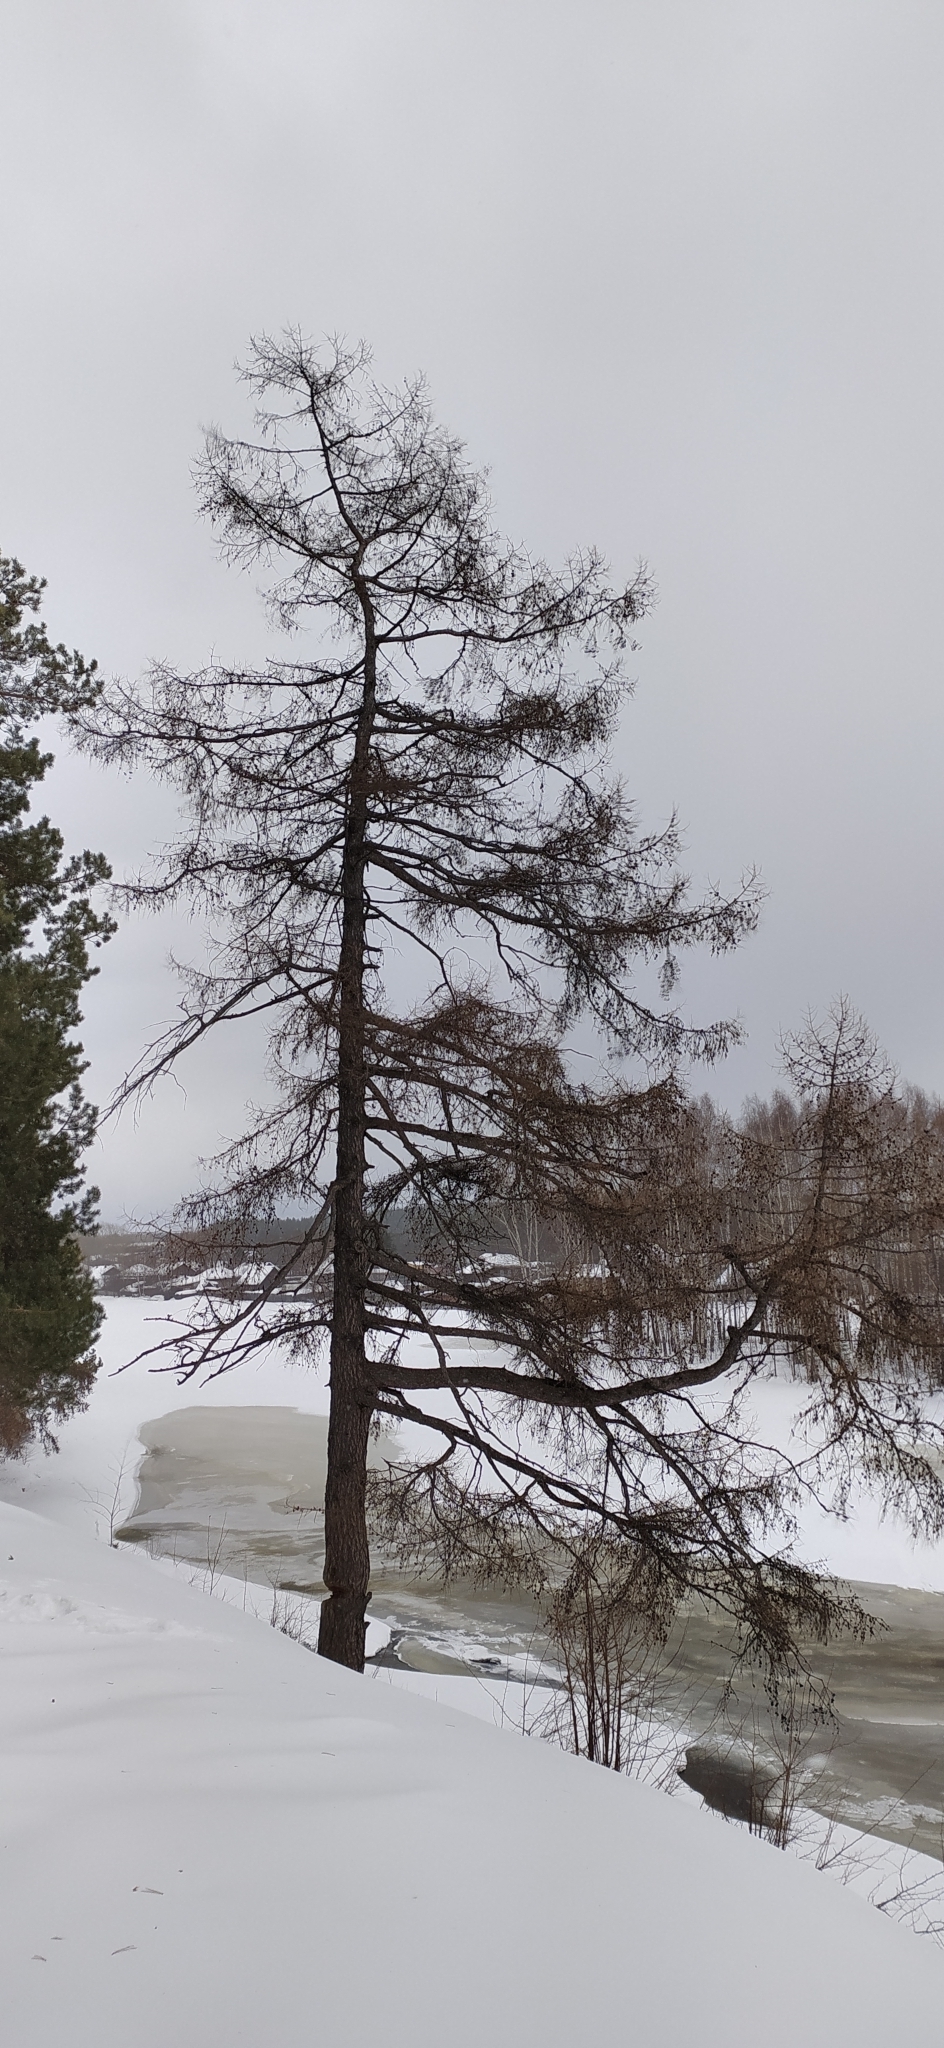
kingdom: Plantae
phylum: Tracheophyta
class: Pinopsida
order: Pinales
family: Pinaceae
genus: Larix
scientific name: Larix sibirica
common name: Siberian larch
